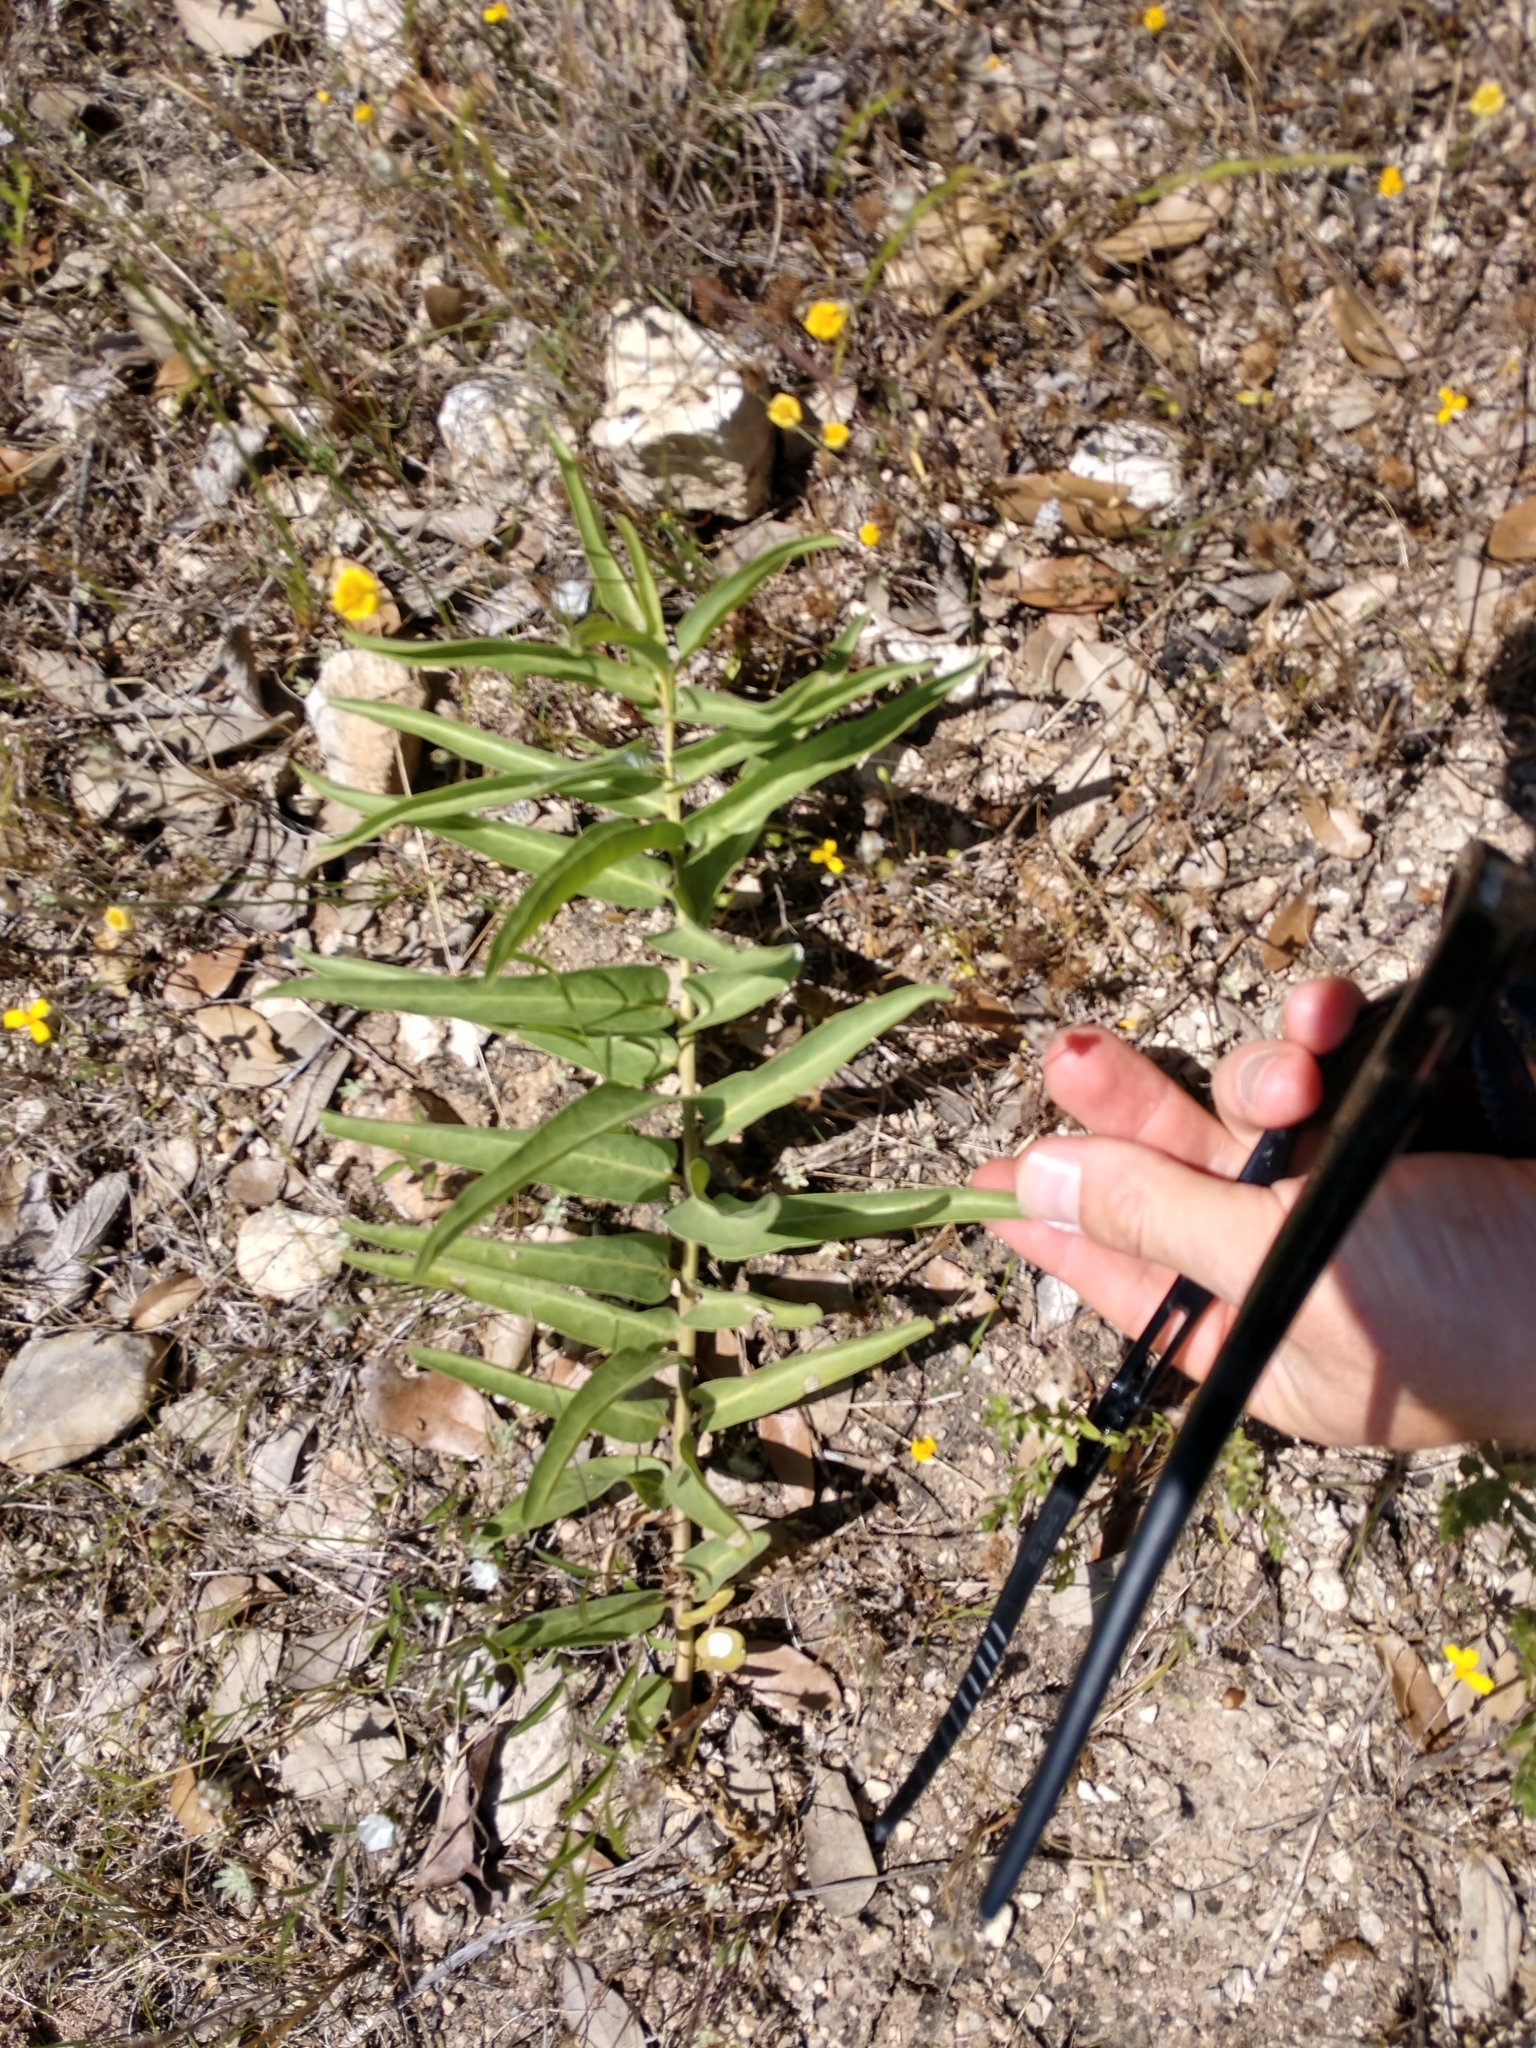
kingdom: Plantae
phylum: Tracheophyta
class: Magnoliopsida
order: Gentianales
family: Apocynaceae
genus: Asclepias
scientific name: Asclepias asperula
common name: Antelope horns
